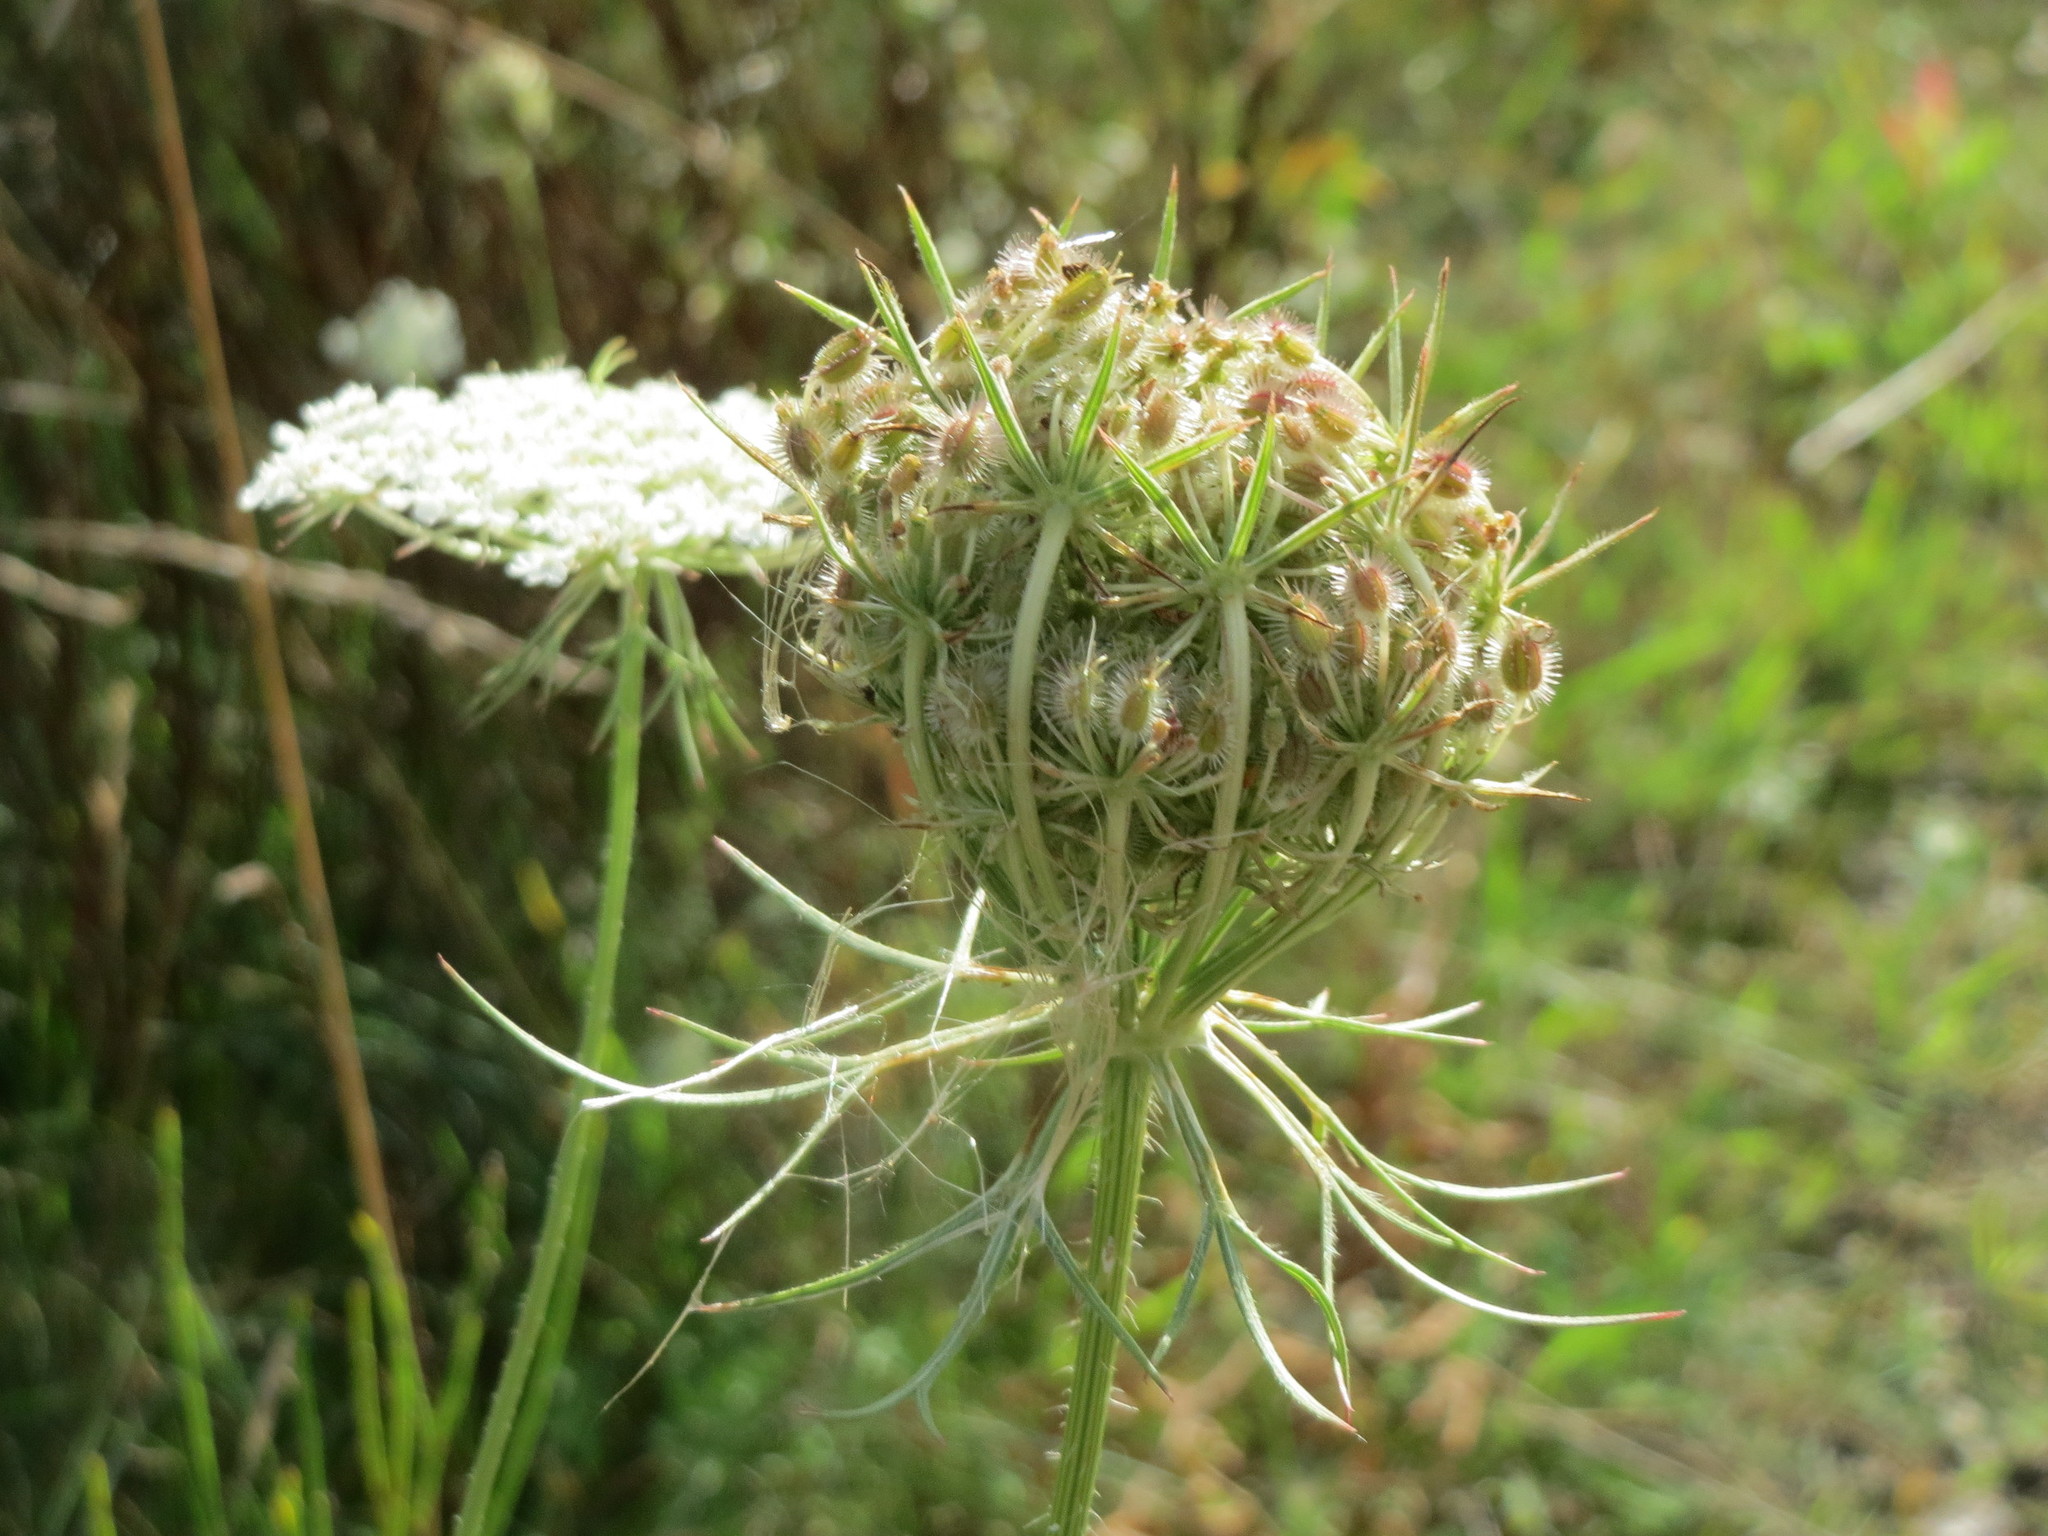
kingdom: Plantae
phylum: Tracheophyta
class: Magnoliopsida
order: Apiales
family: Apiaceae
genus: Daucus
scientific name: Daucus carota
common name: Wild carrot
